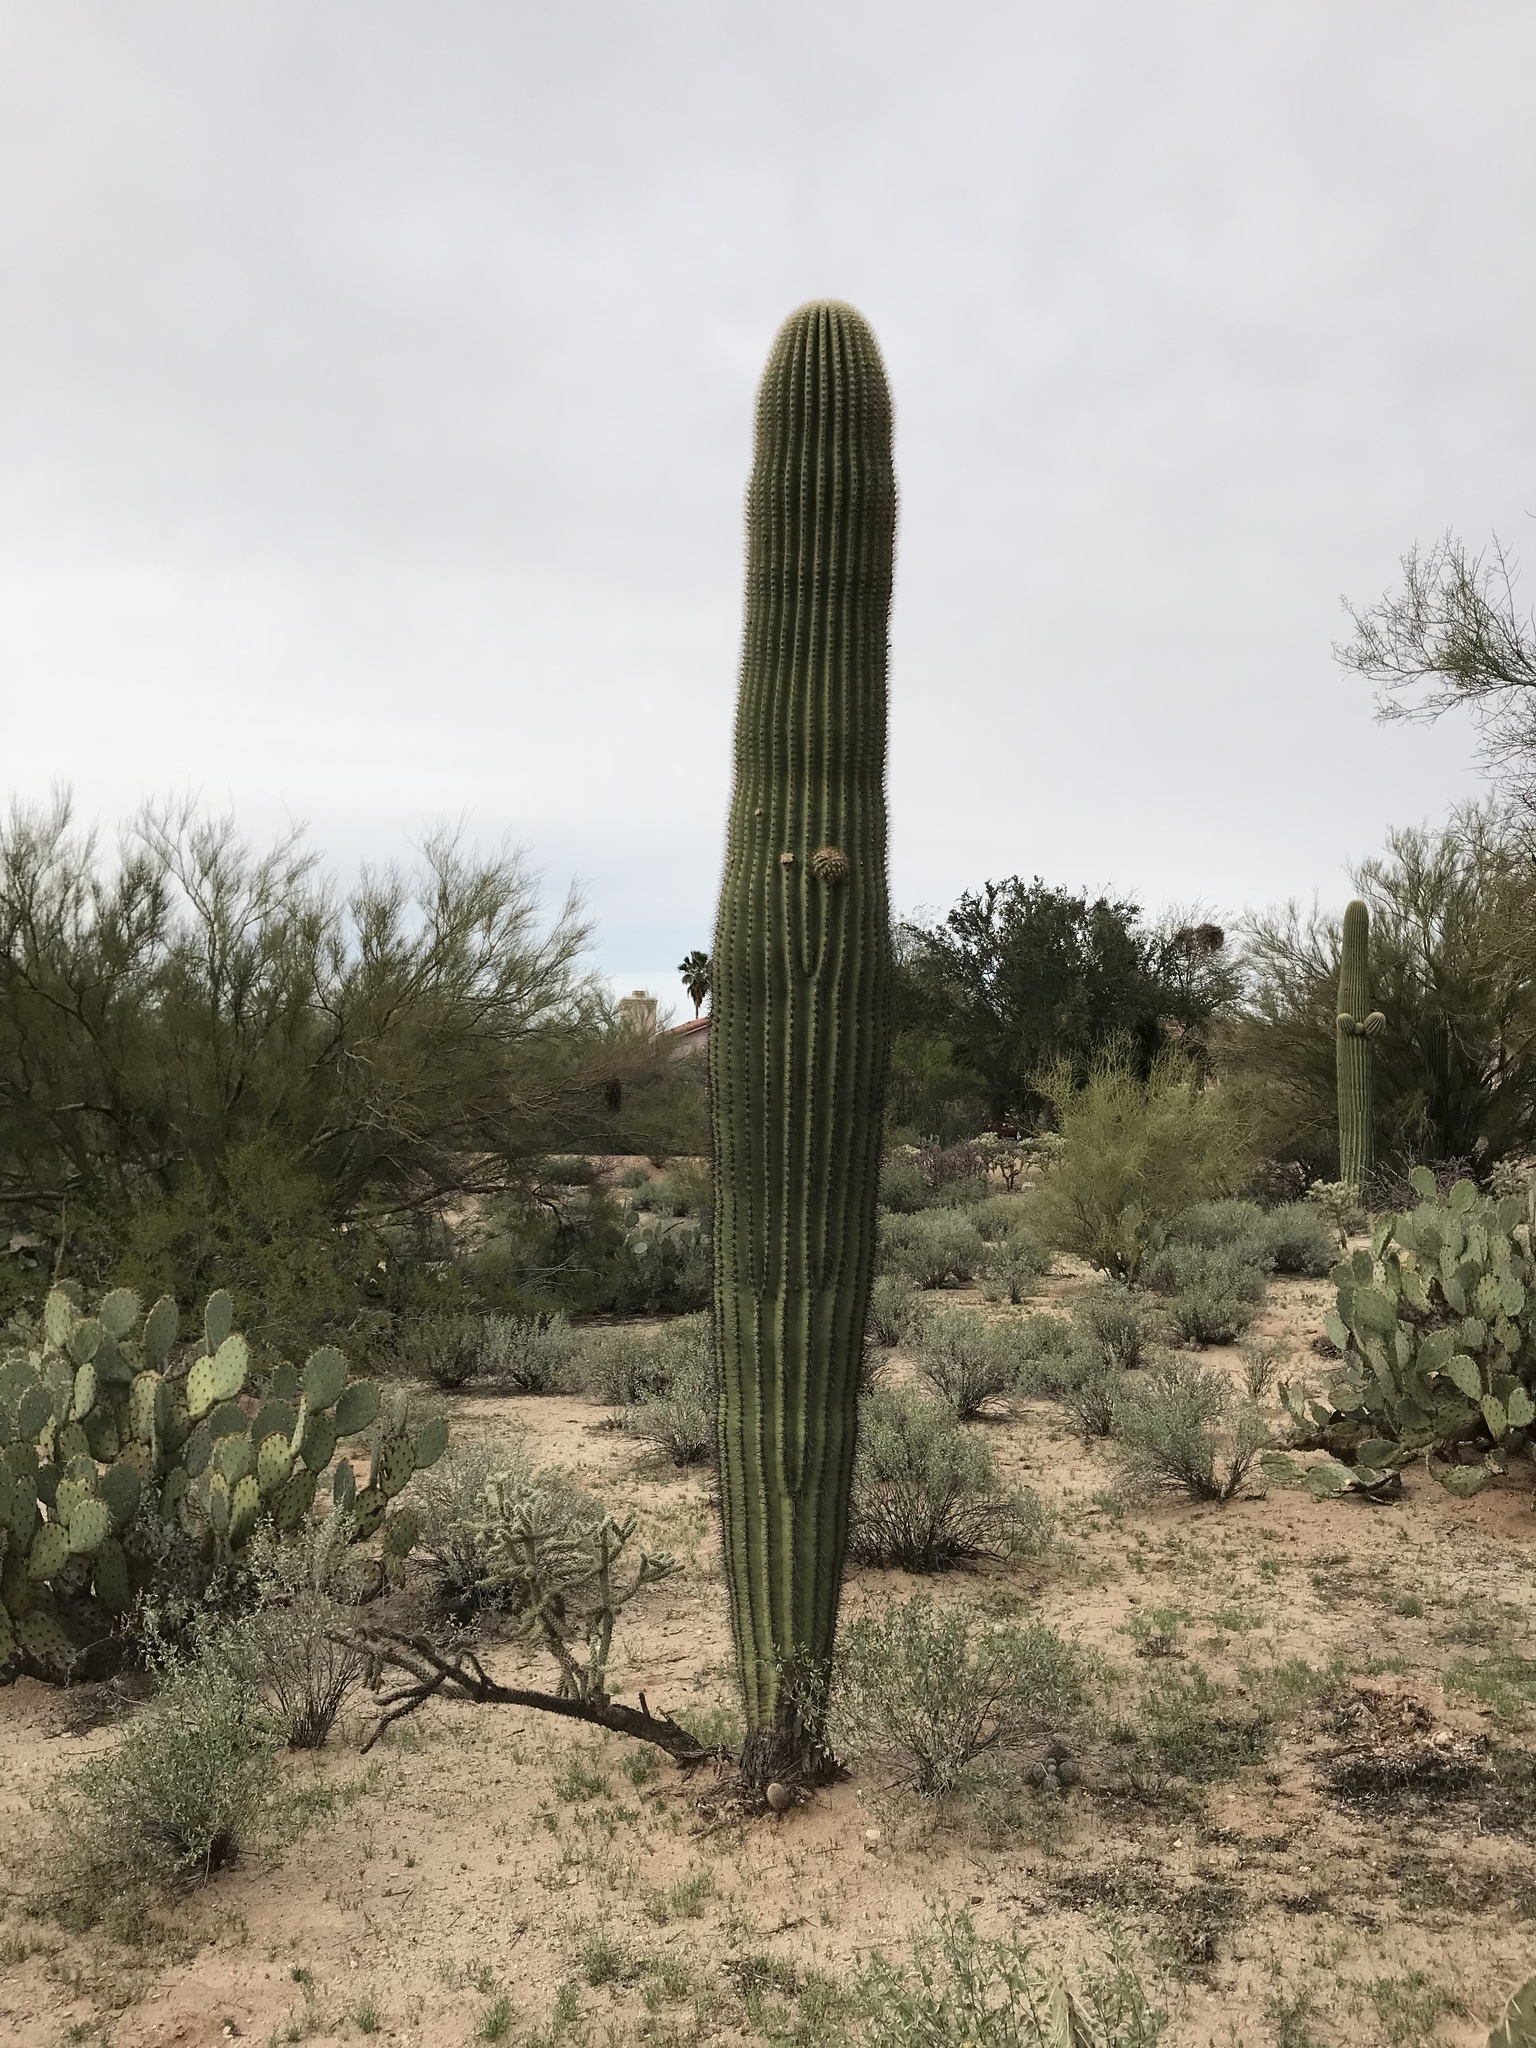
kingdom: Plantae
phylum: Tracheophyta
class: Magnoliopsida
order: Caryophyllales
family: Cactaceae
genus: Carnegiea
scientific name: Carnegiea gigantea
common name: Saguaro
